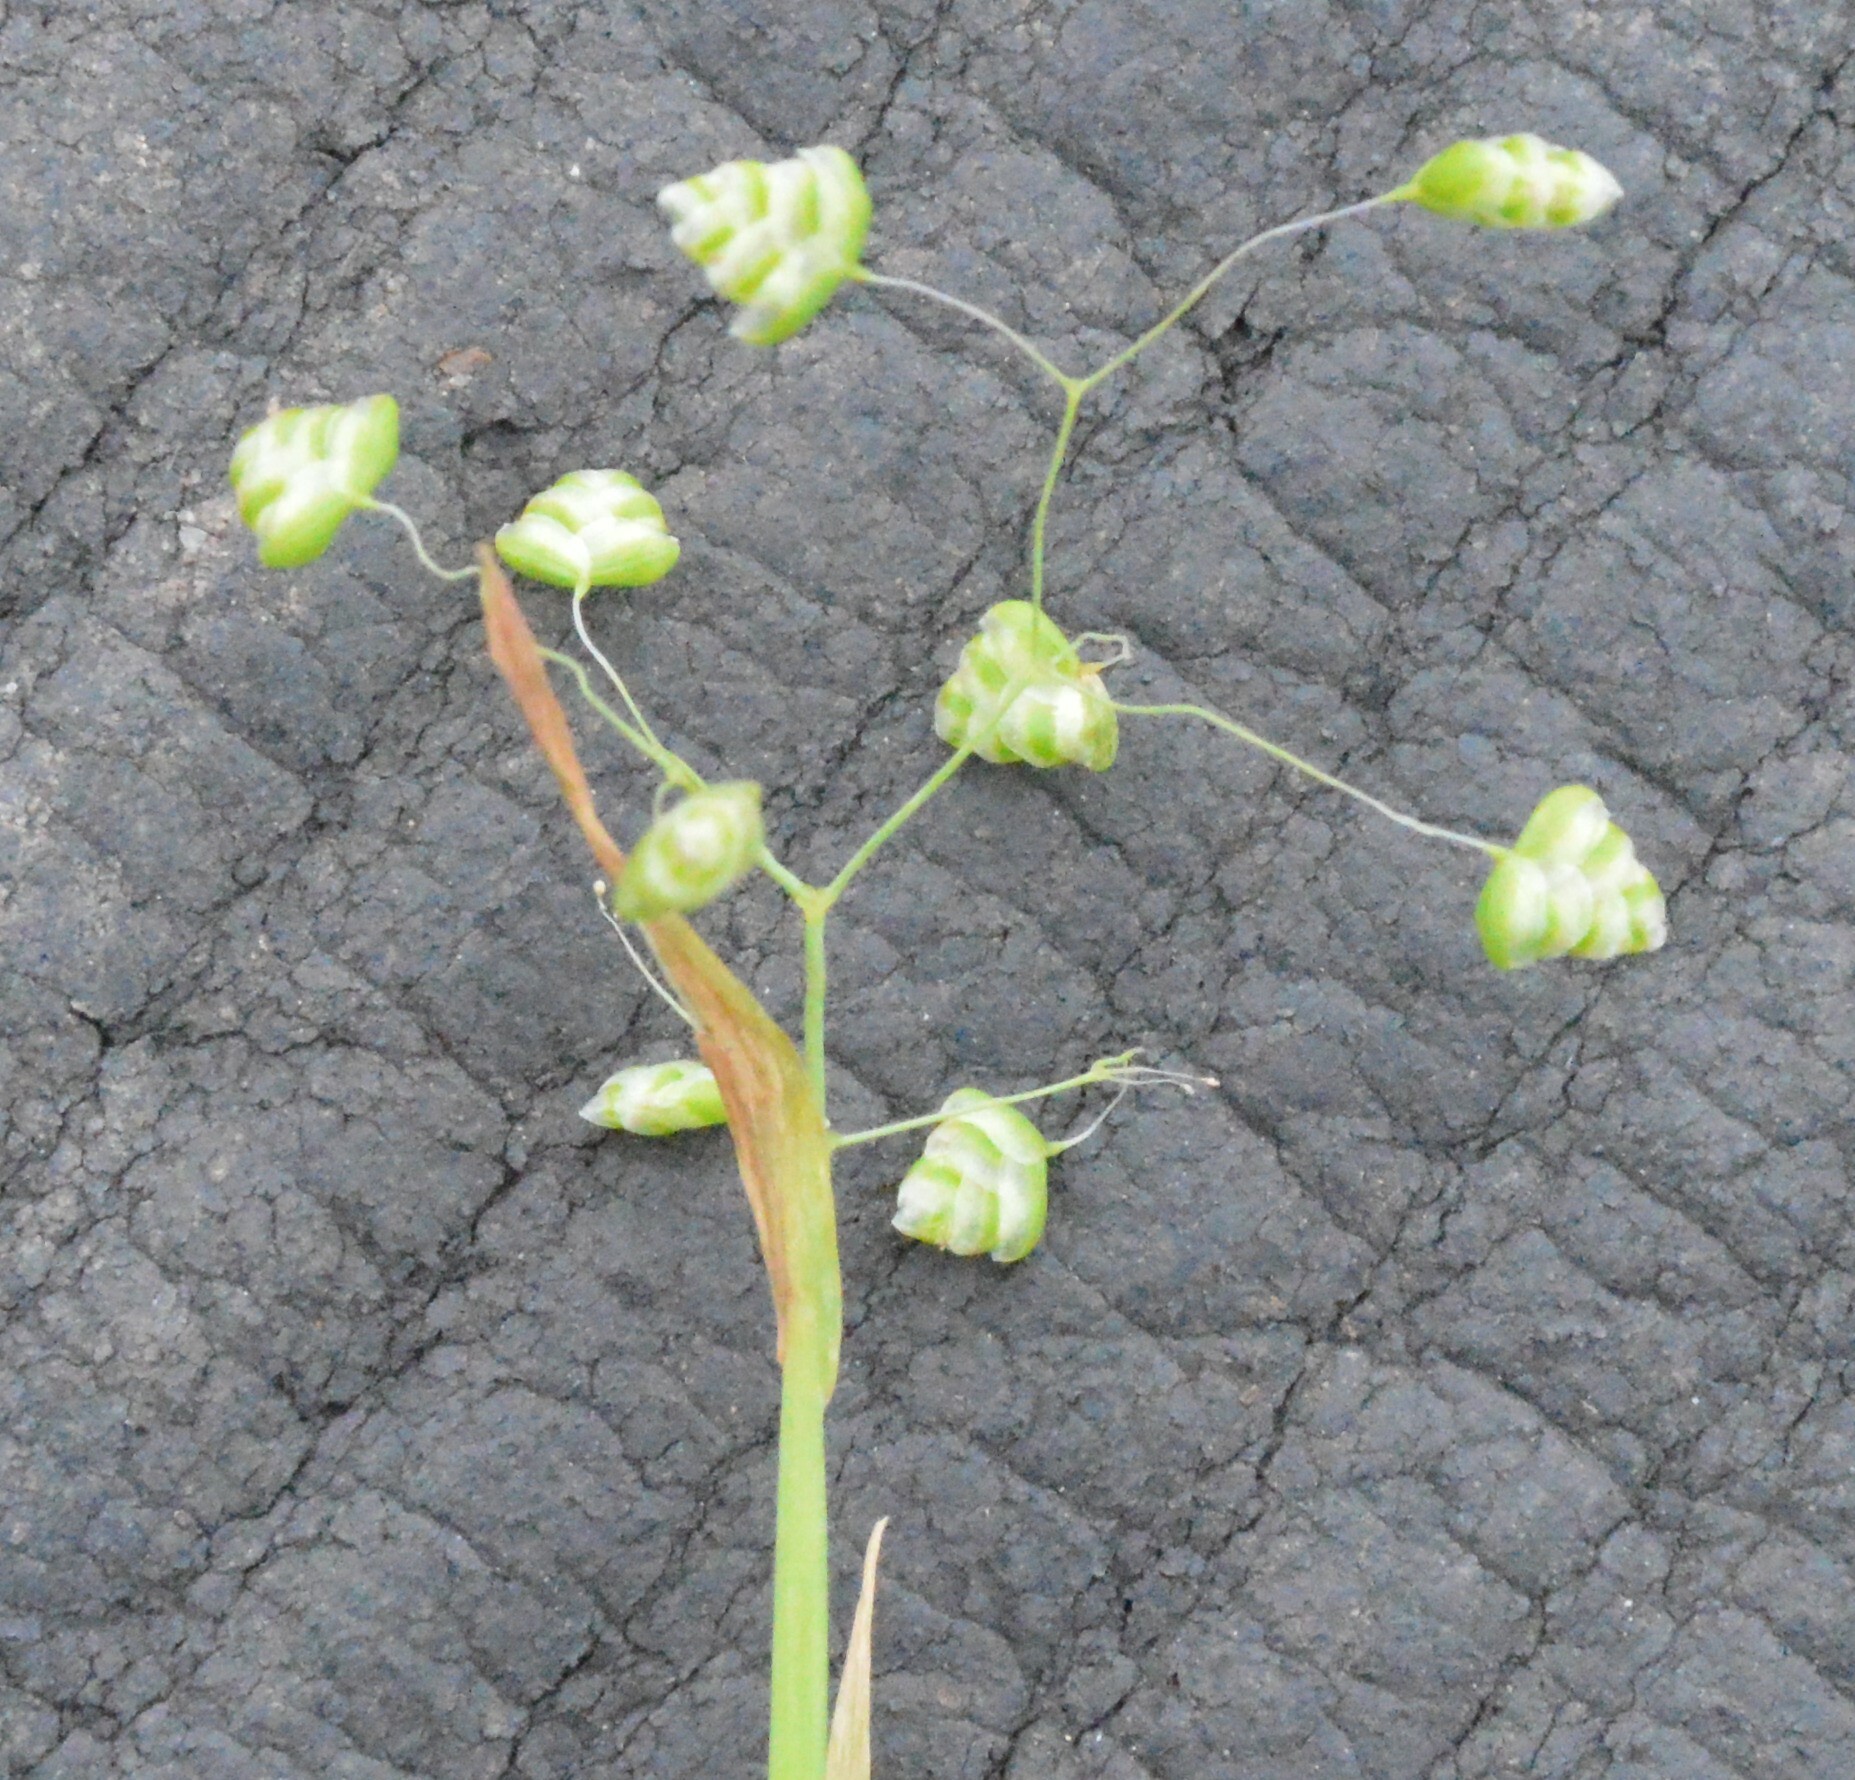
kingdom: Plantae
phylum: Tracheophyta
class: Liliopsida
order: Poales
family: Poaceae
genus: Briza
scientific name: Briza minor
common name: Lesser quaking-grass
